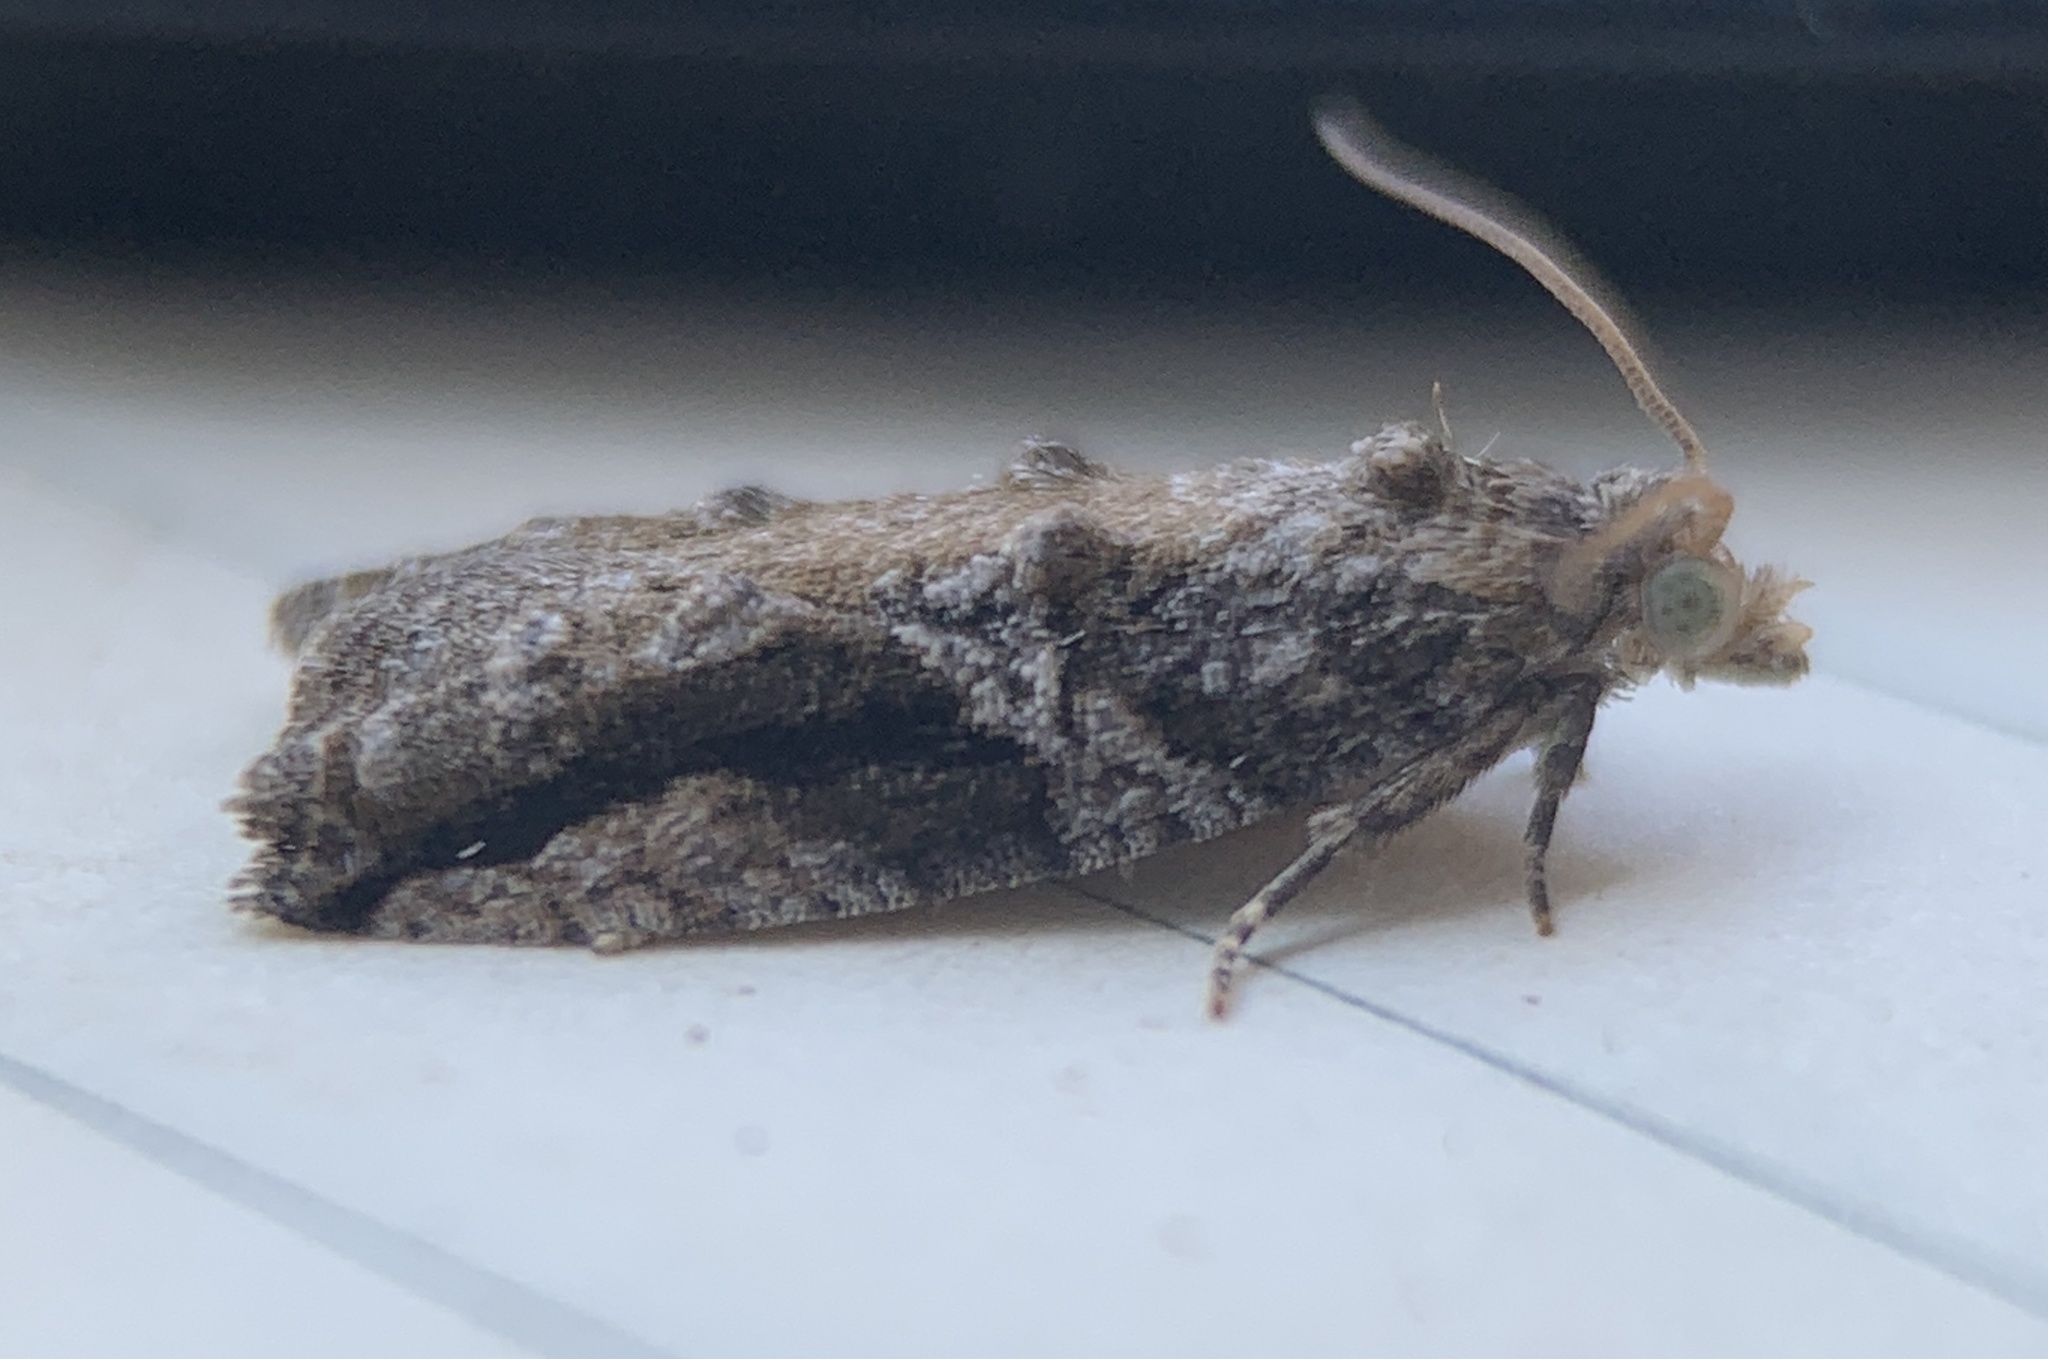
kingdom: Animalia
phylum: Arthropoda
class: Insecta
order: Lepidoptera
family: Tortricidae
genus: Proteoteras
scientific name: Proteoteras crescentana
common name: Black-crescent proteoteras moth
